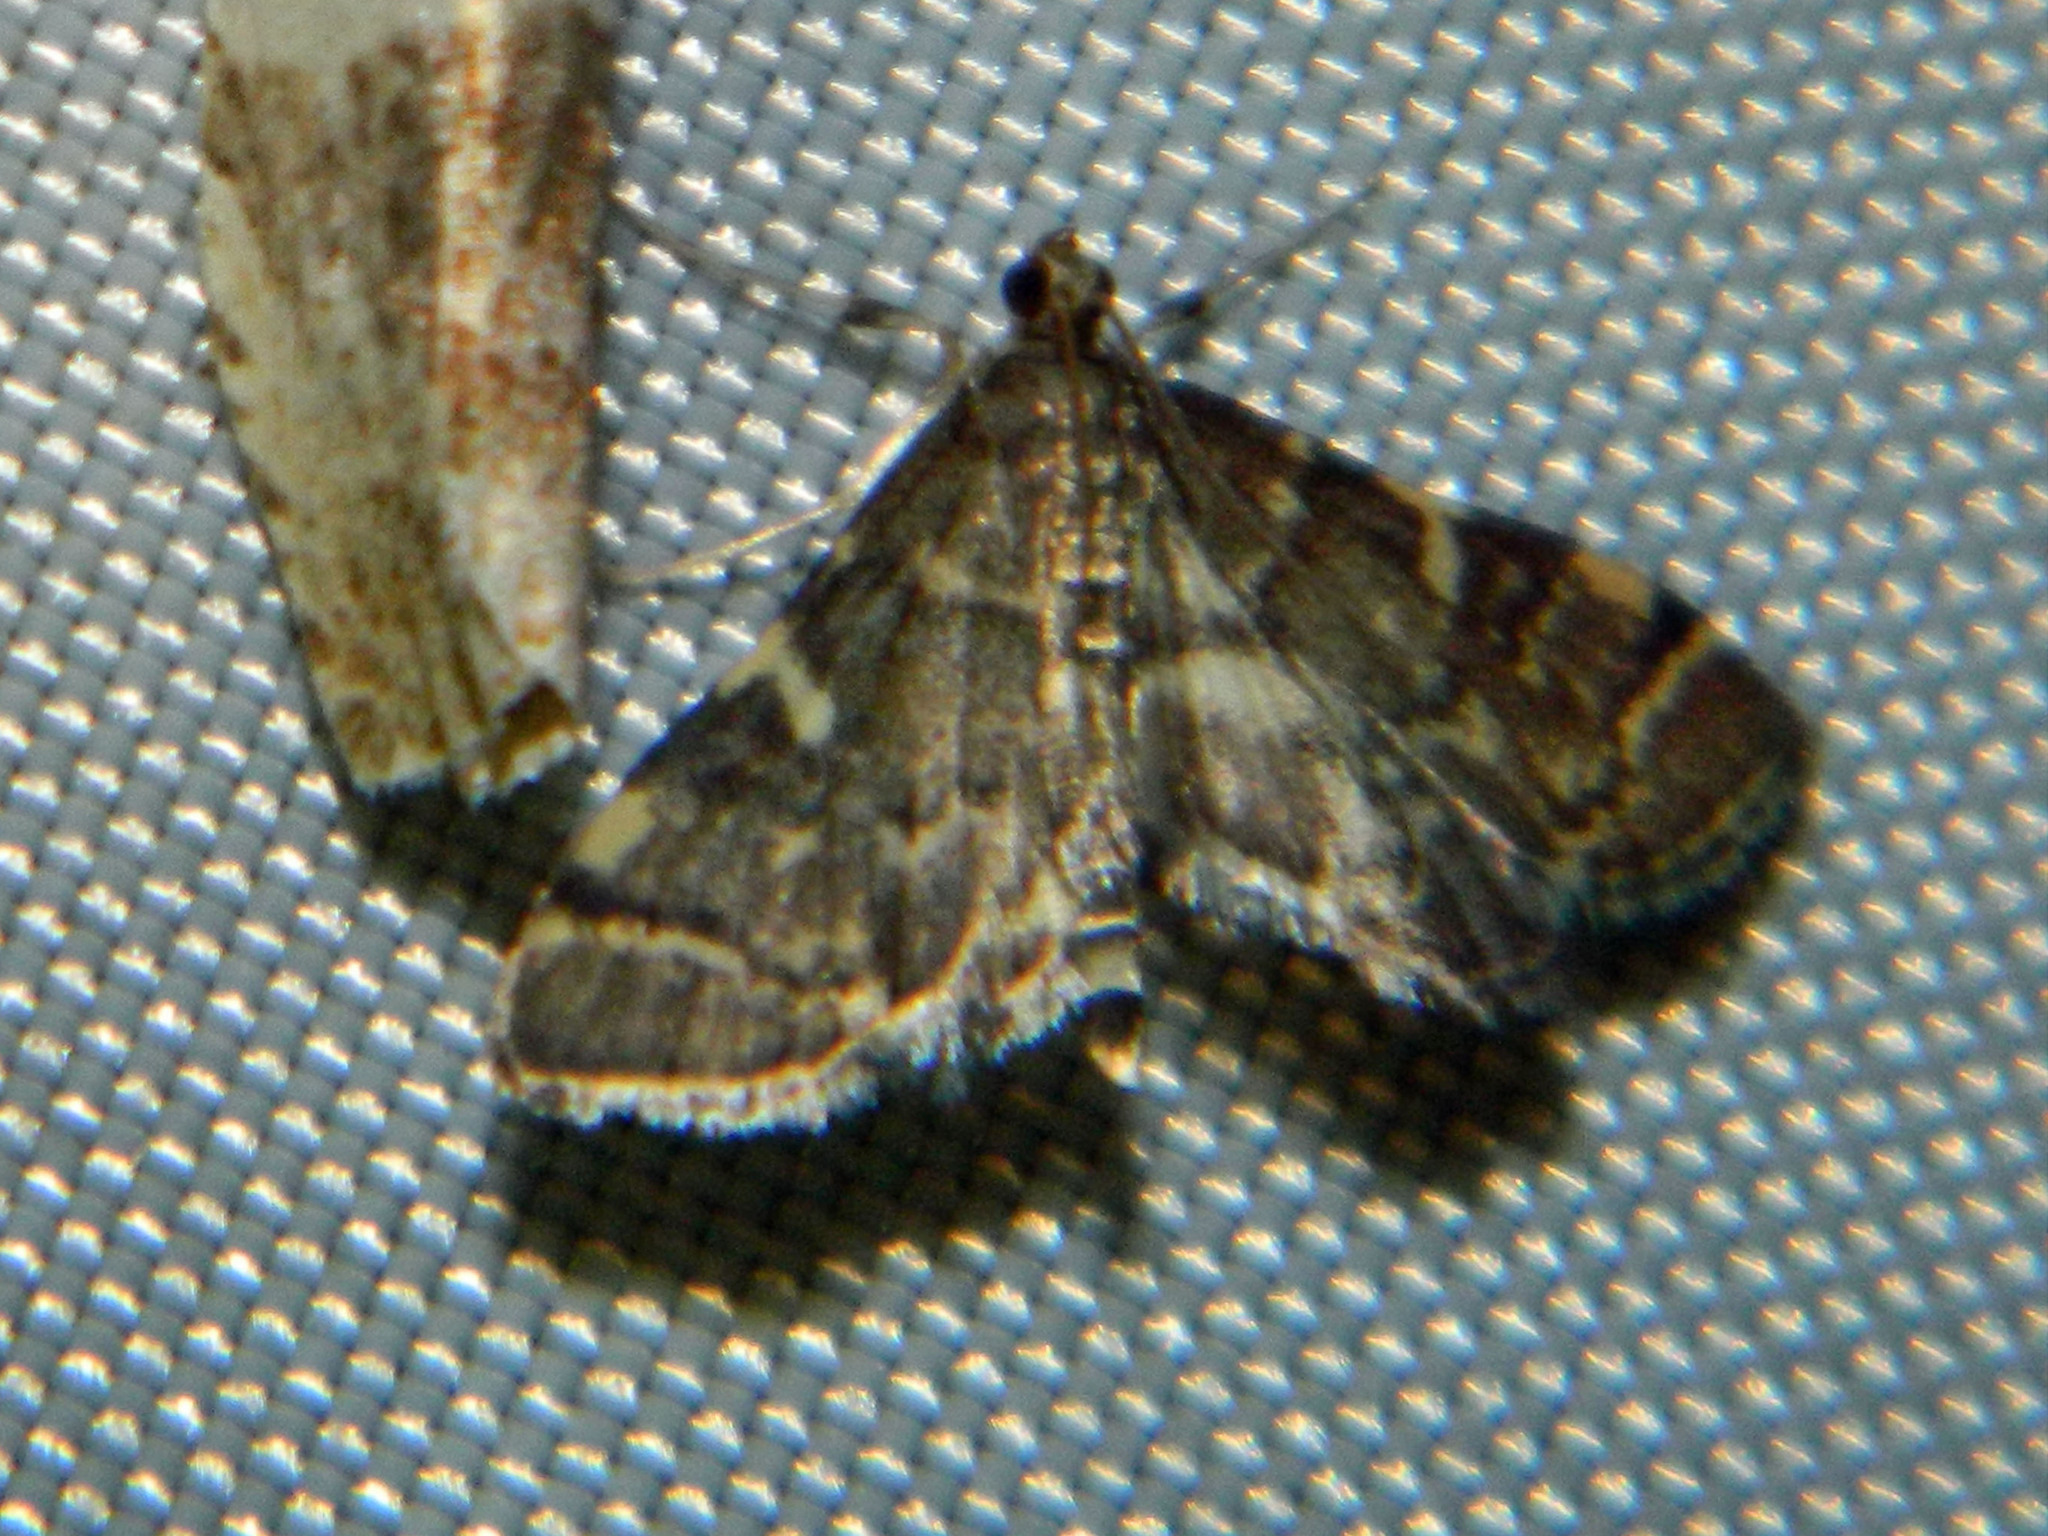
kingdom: Animalia
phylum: Arthropoda
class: Insecta
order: Lepidoptera
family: Crambidae
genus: Anageshna
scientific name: Anageshna primordialis
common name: Yellow-spotted webworm moth
